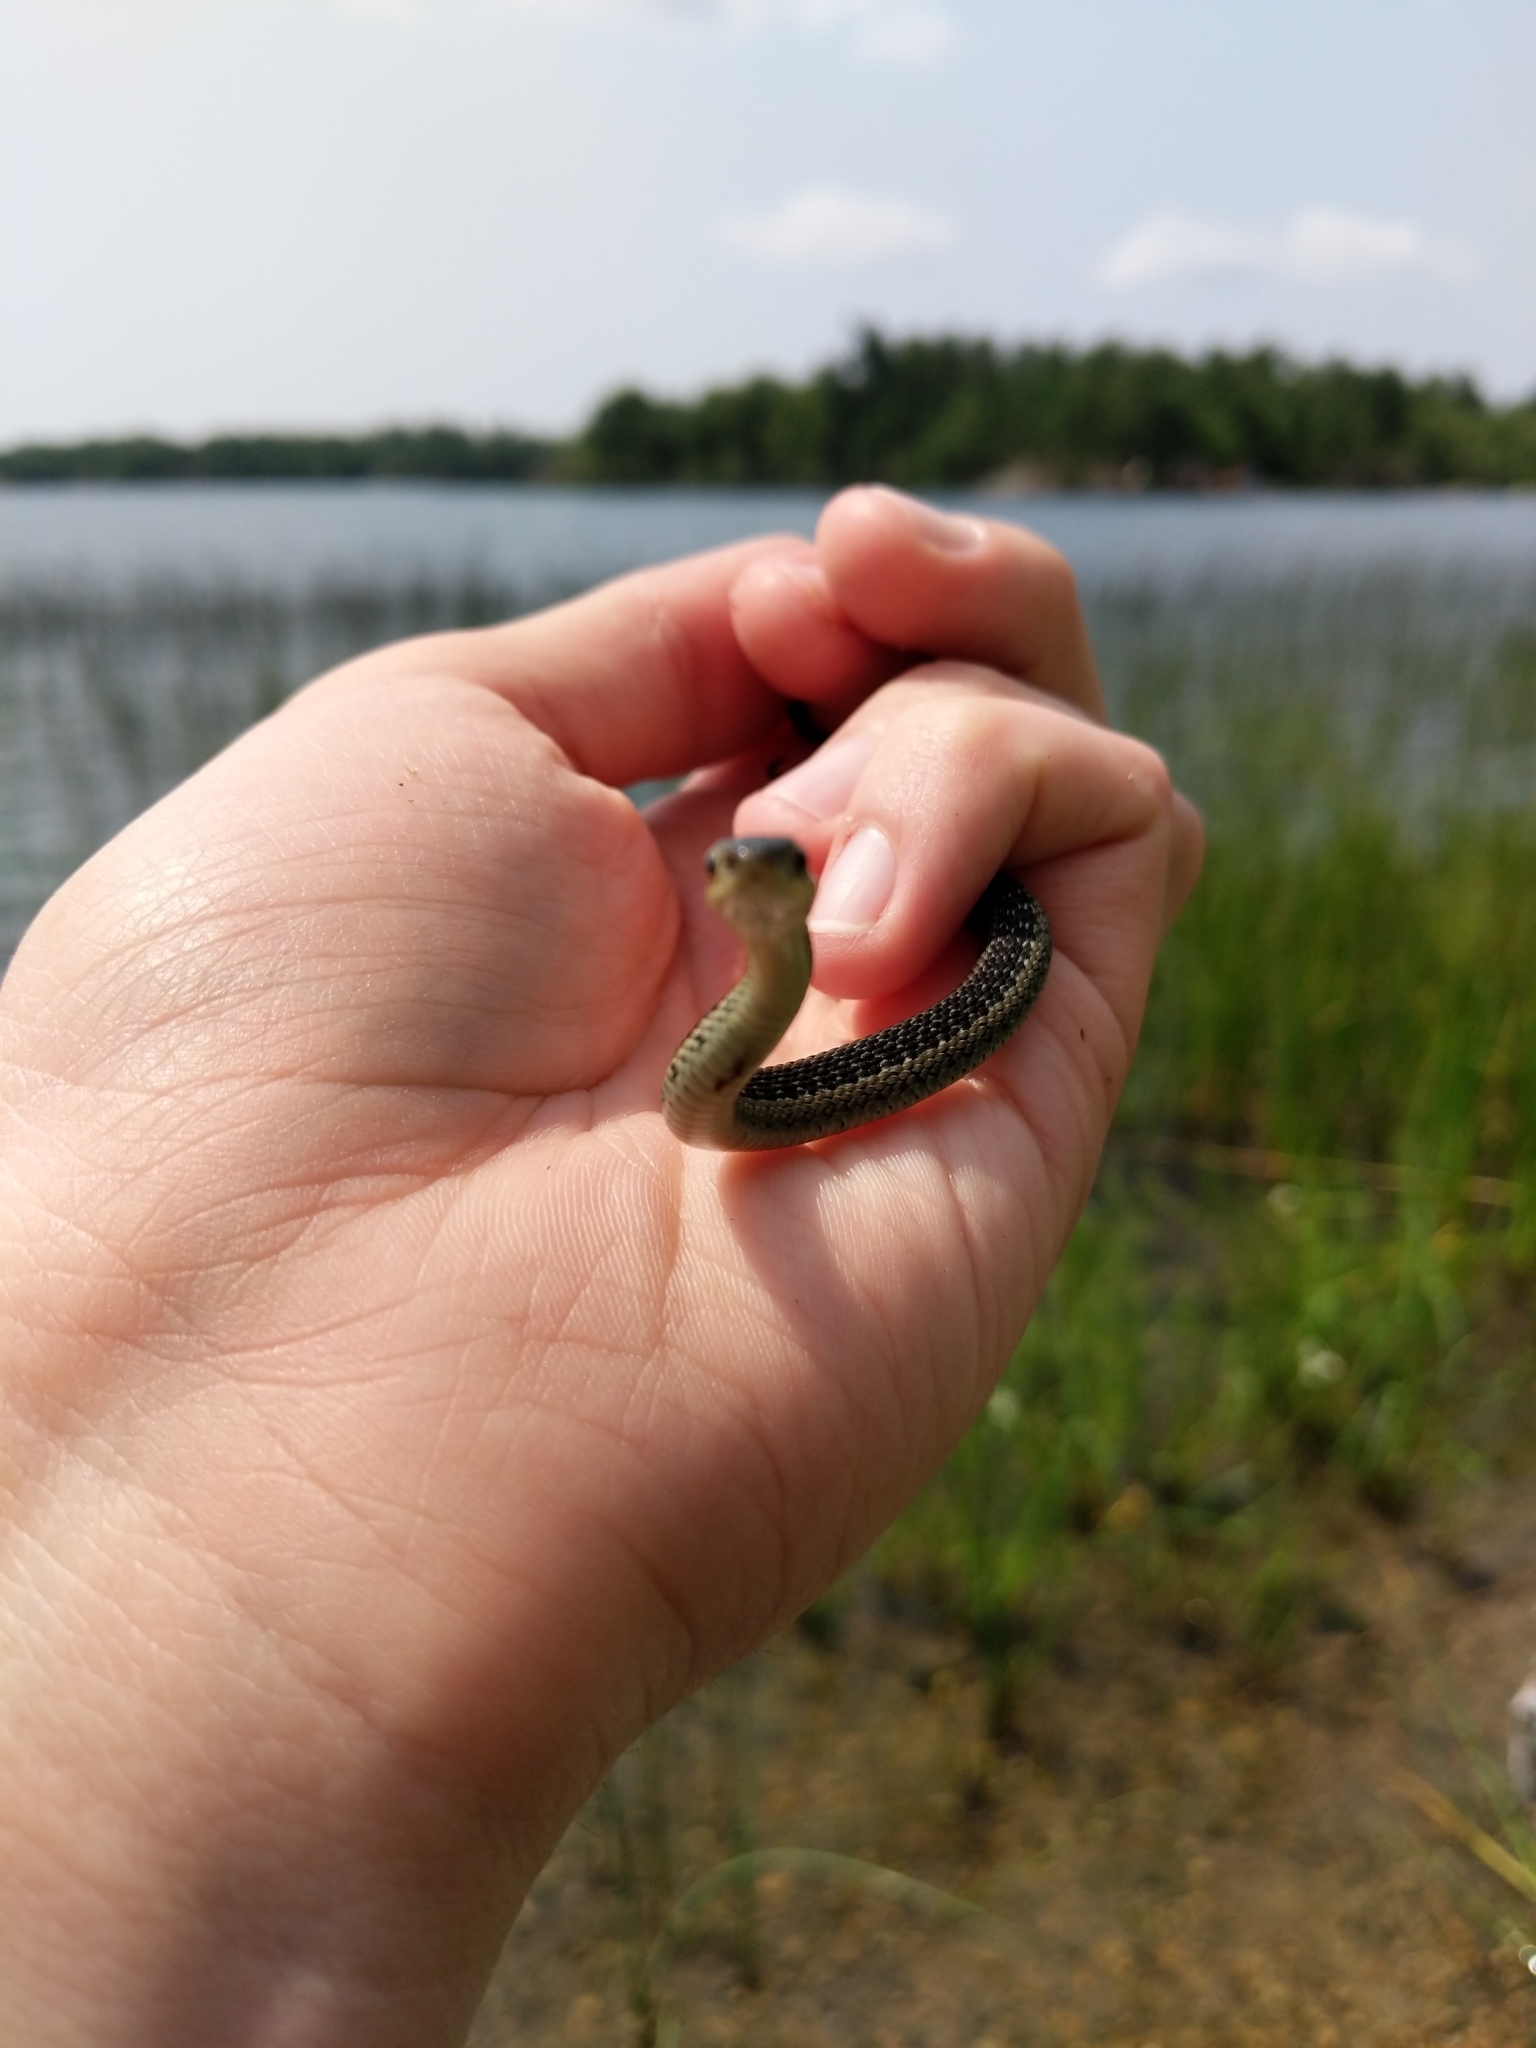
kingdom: Animalia
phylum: Chordata
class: Squamata
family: Colubridae
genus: Thamnophis
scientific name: Thamnophis sirtalis
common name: Common garter snake
